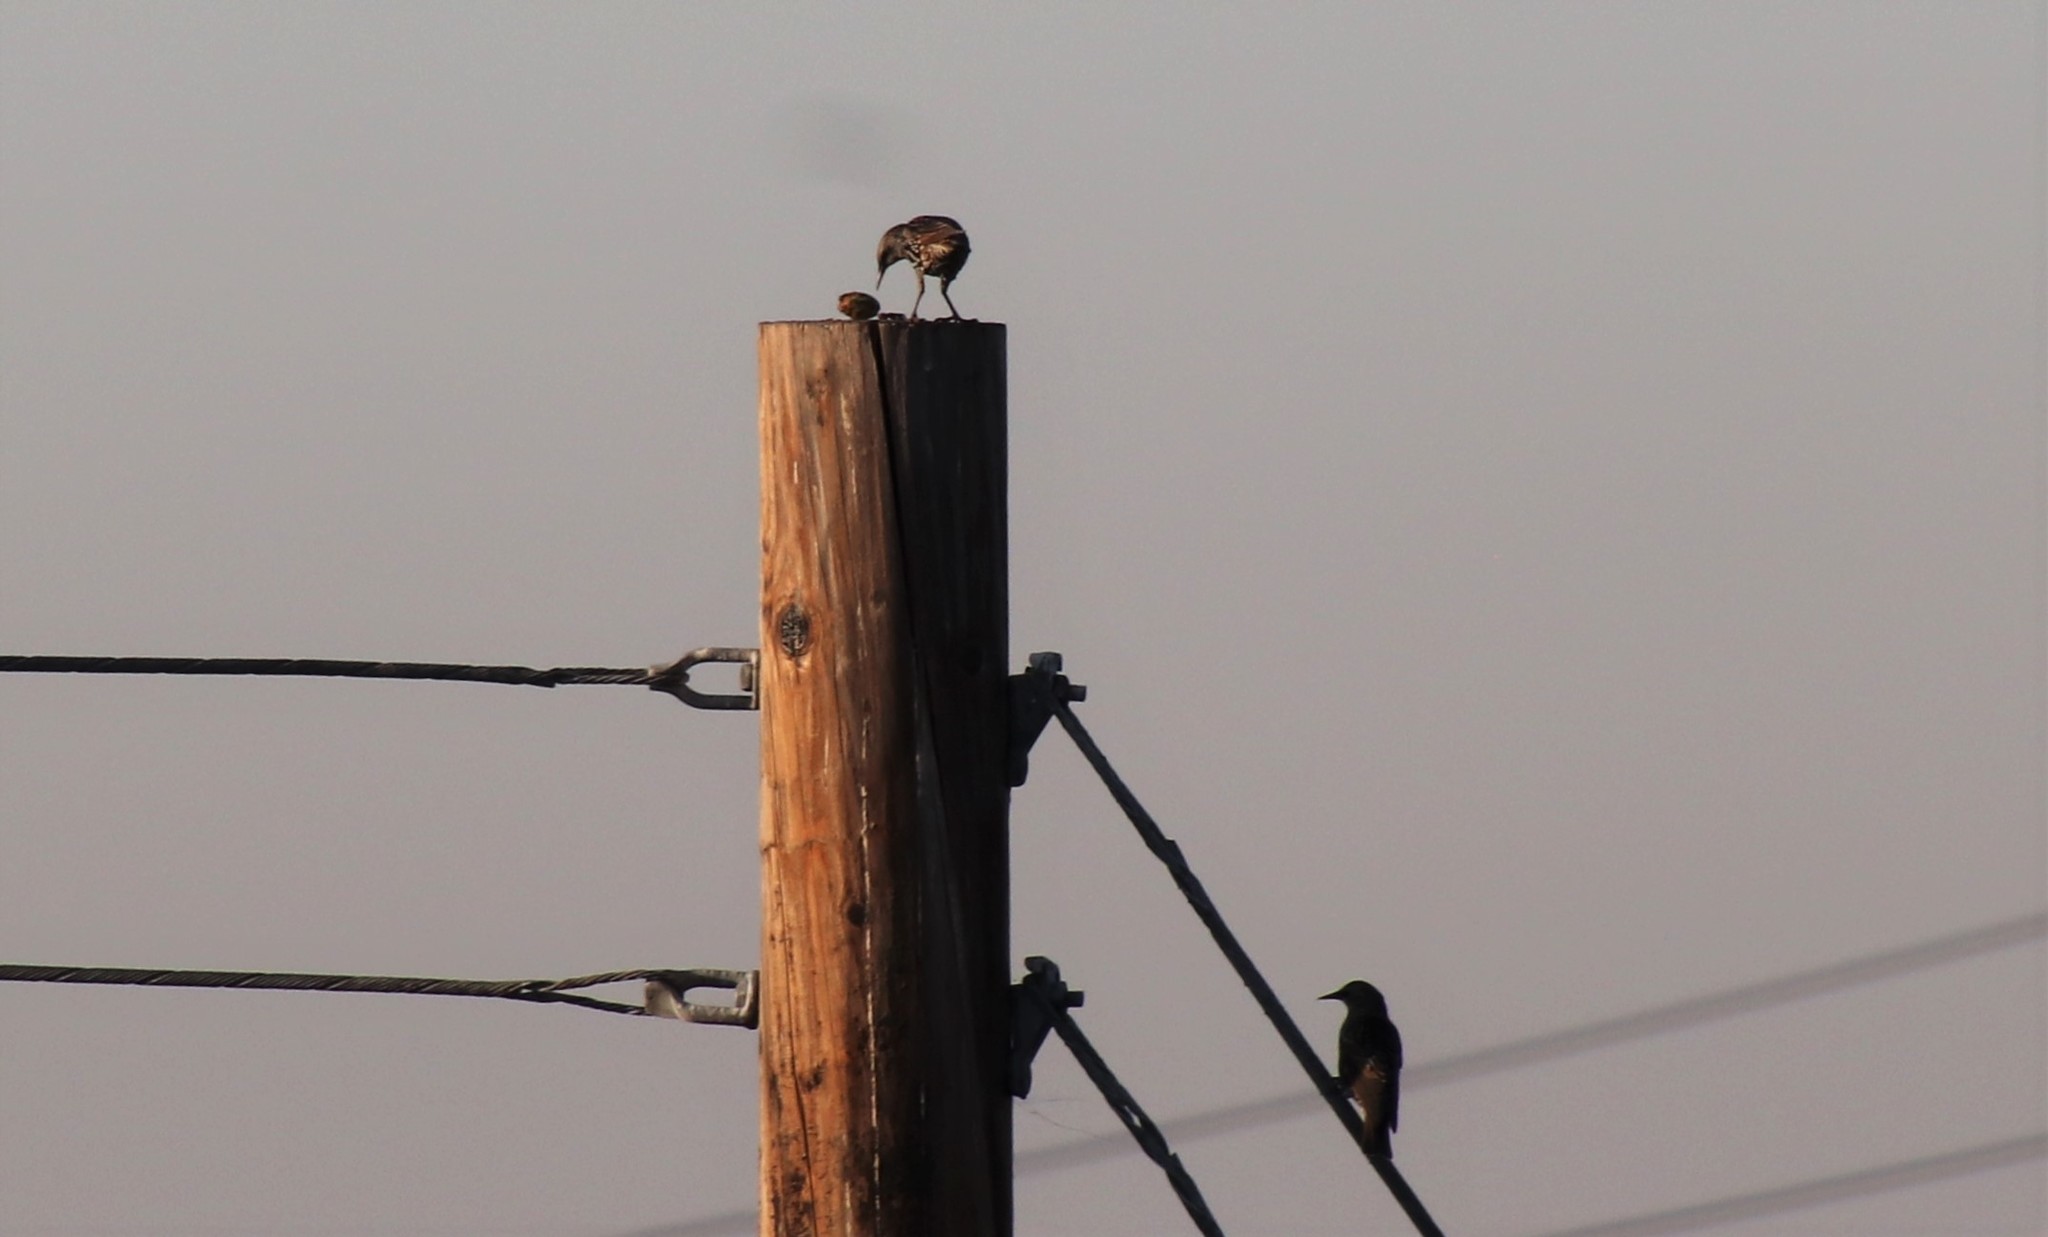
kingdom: Animalia
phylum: Chordata
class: Aves
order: Passeriformes
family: Sturnidae
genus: Sturnus
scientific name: Sturnus vulgaris
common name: Common starling
